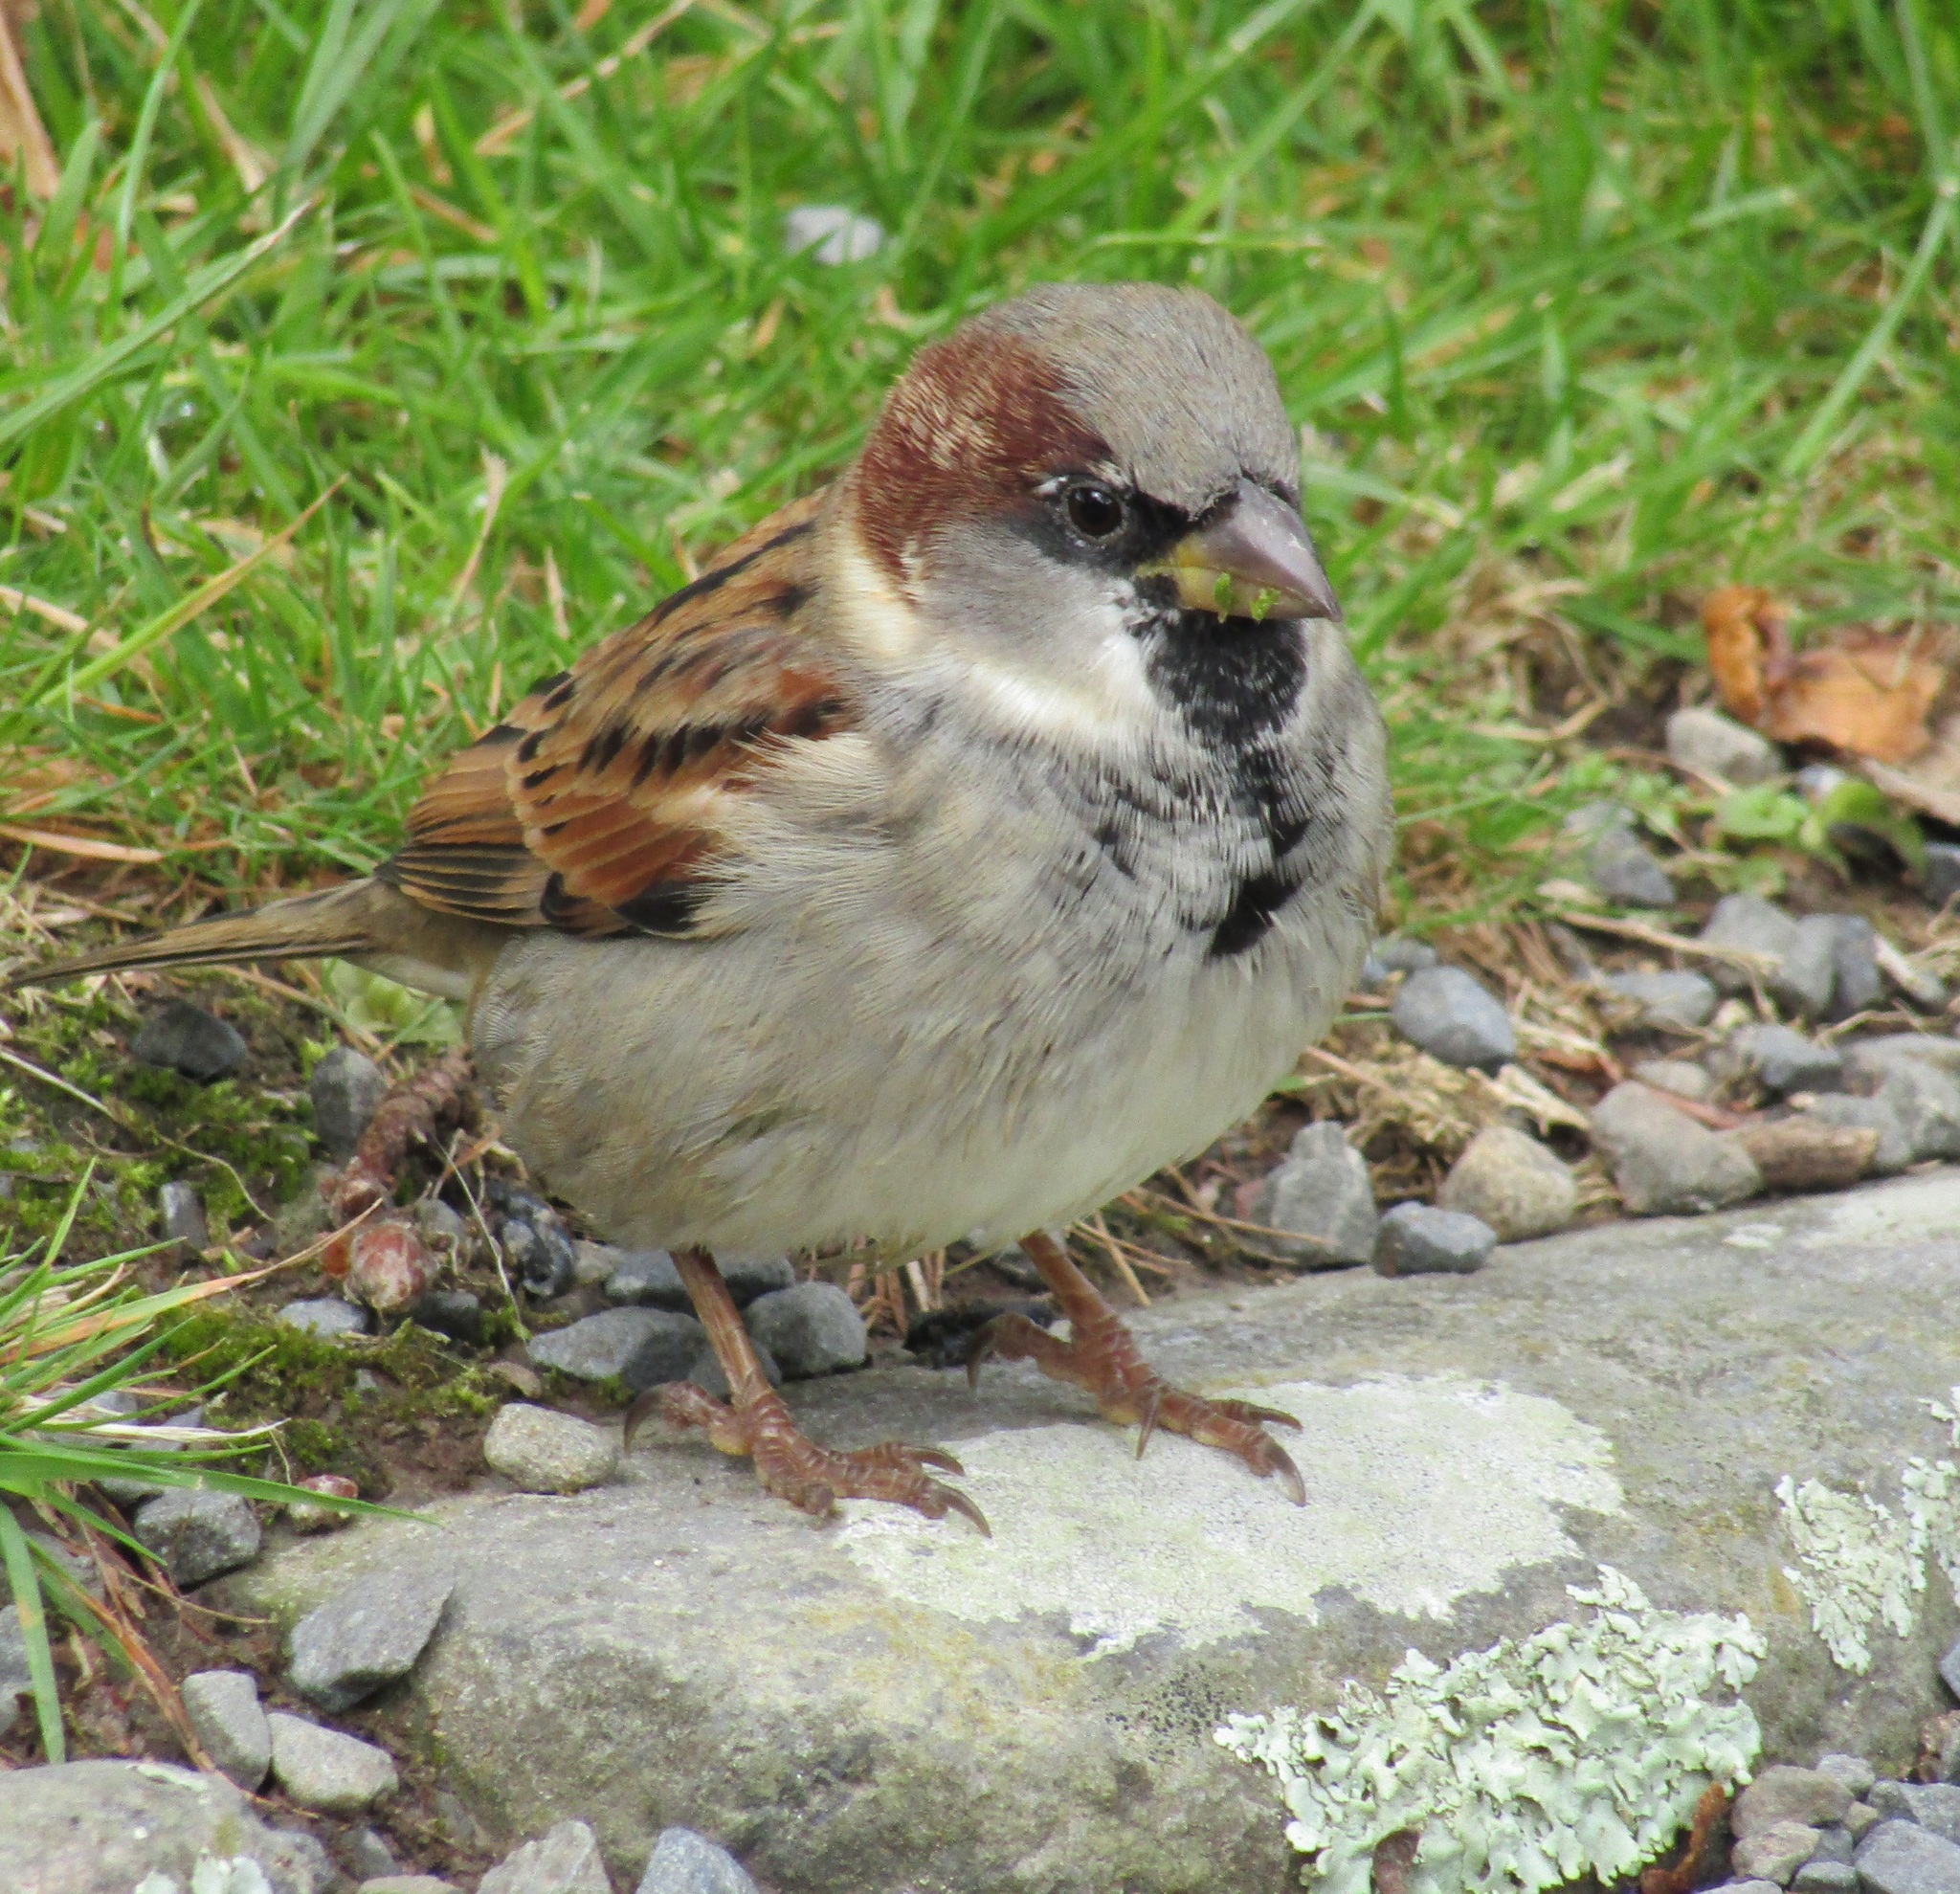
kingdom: Animalia
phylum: Chordata
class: Aves
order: Passeriformes
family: Passeridae
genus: Passer
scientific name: Passer domesticus
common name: House sparrow
